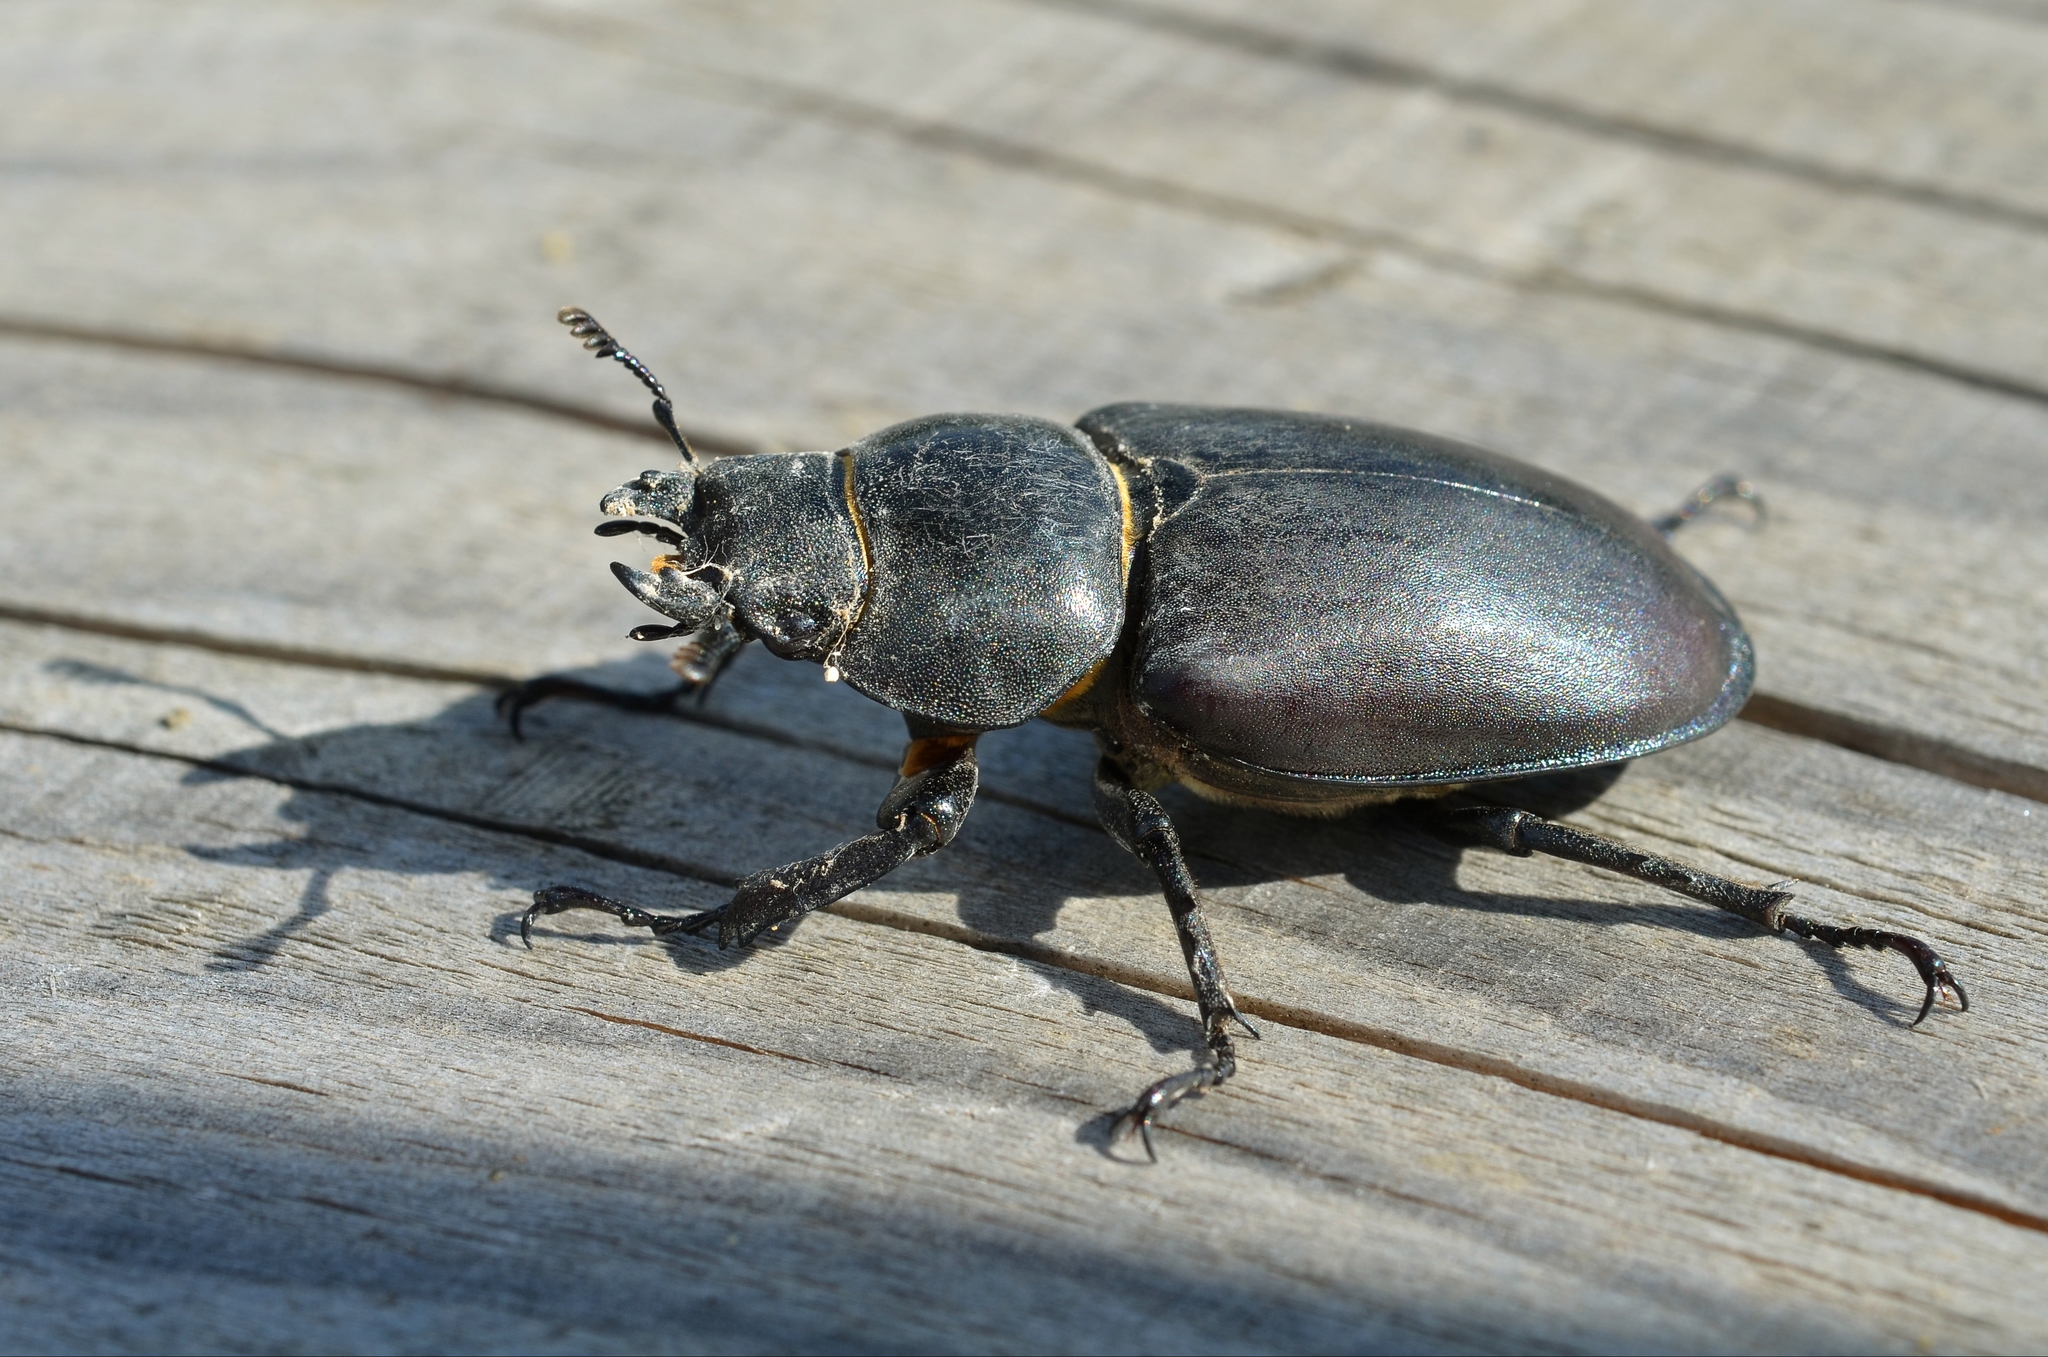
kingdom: Animalia
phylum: Arthropoda
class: Insecta
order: Coleoptera
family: Lucanidae
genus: Lucanus
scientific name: Lucanus cervus
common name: Stag beetle
